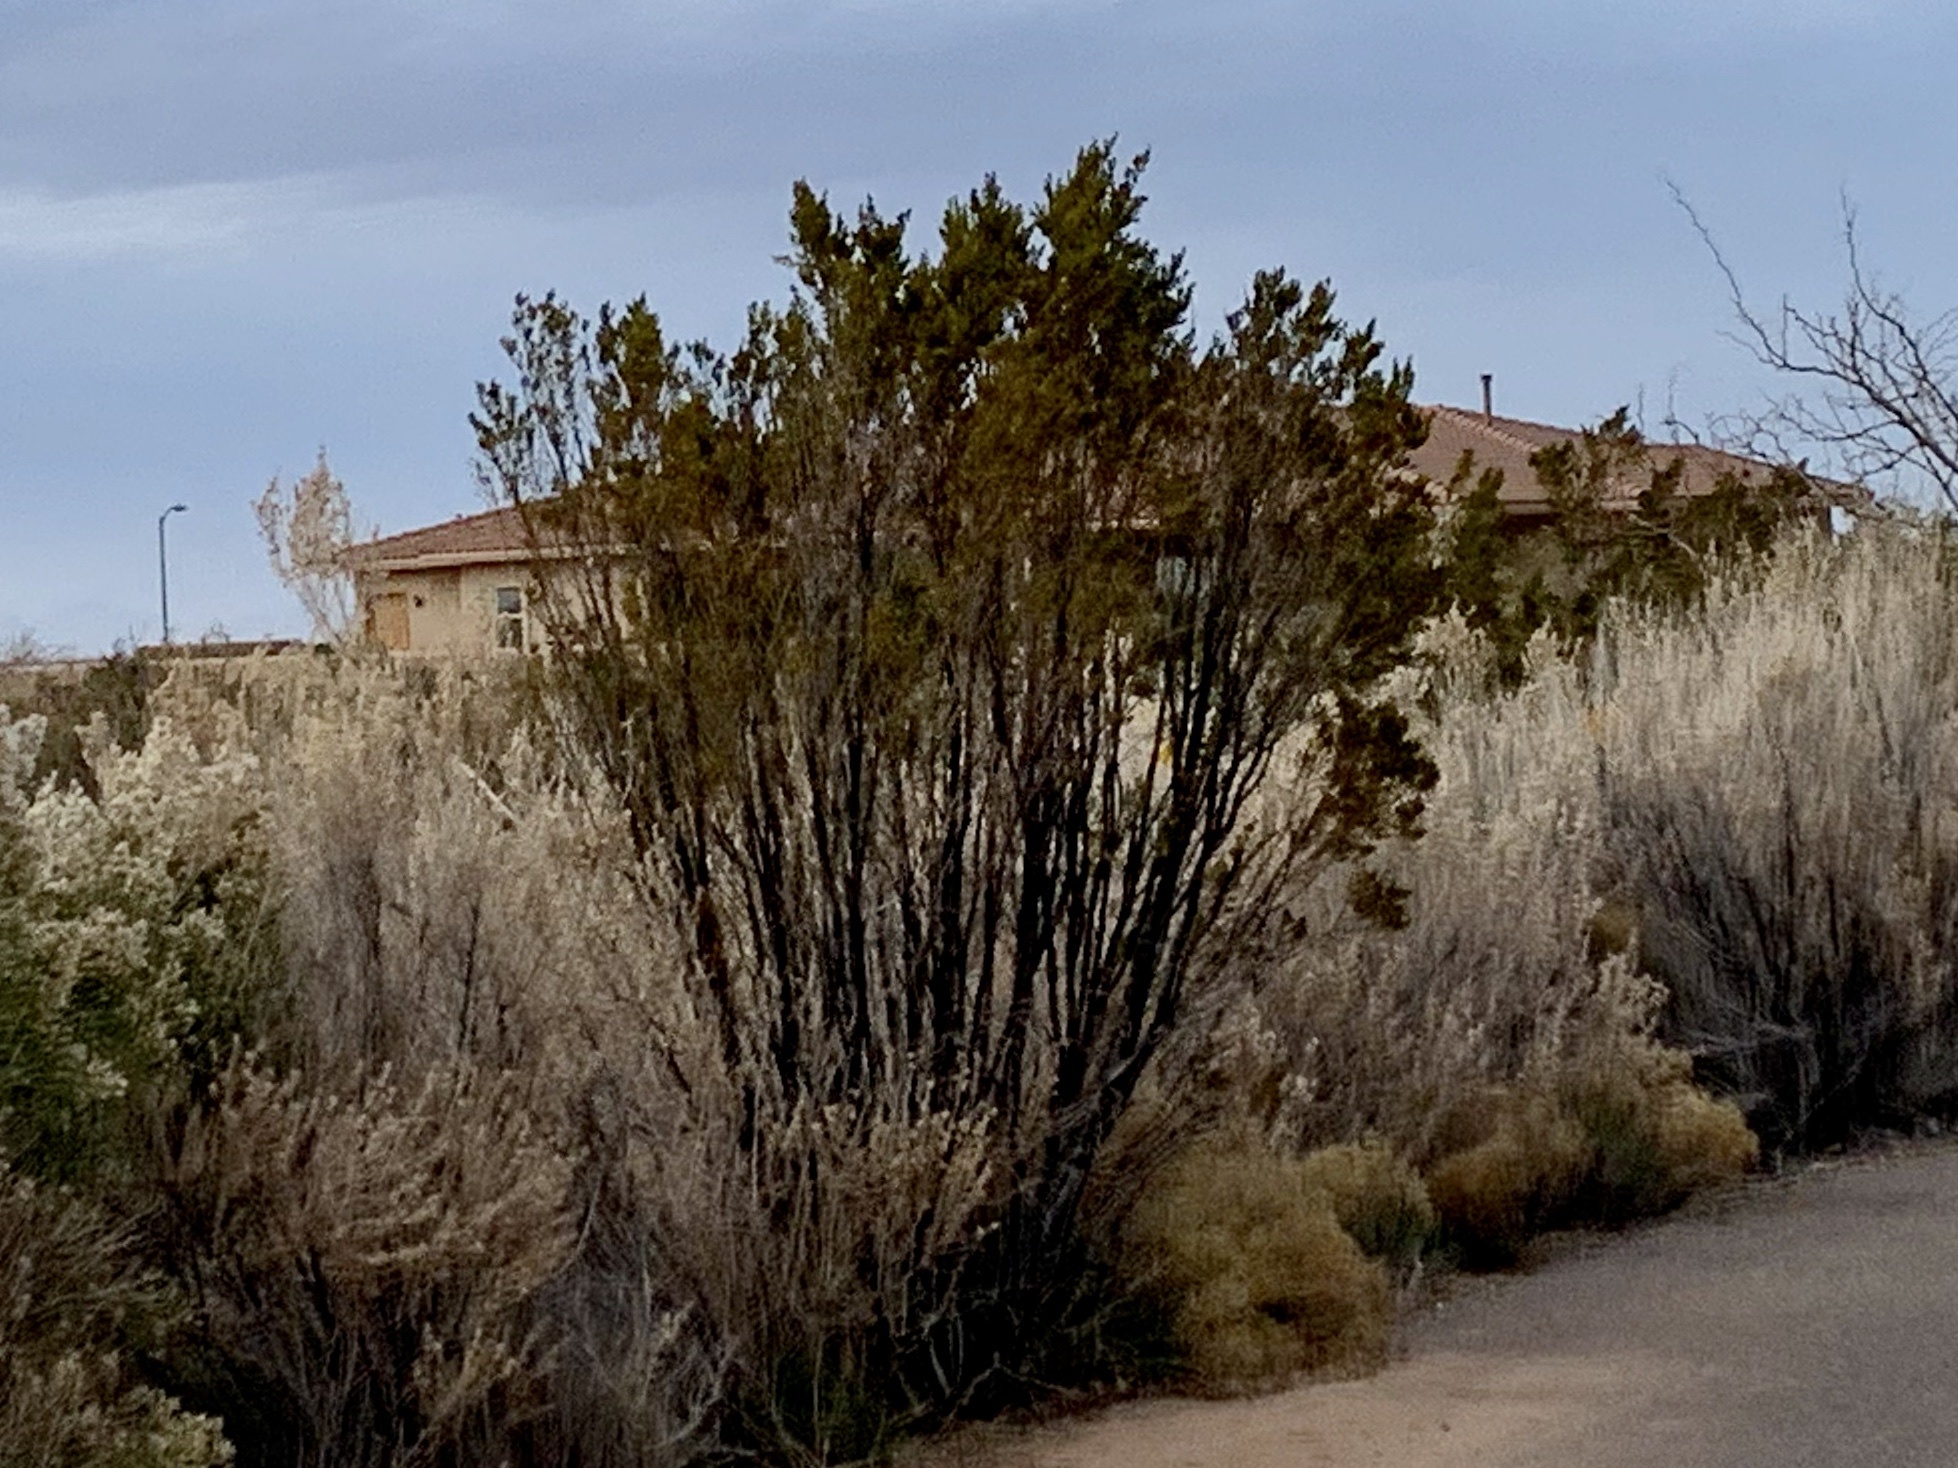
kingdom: Plantae
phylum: Tracheophyta
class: Magnoliopsida
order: Zygophyllales
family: Zygophyllaceae
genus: Larrea
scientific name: Larrea tridentata
